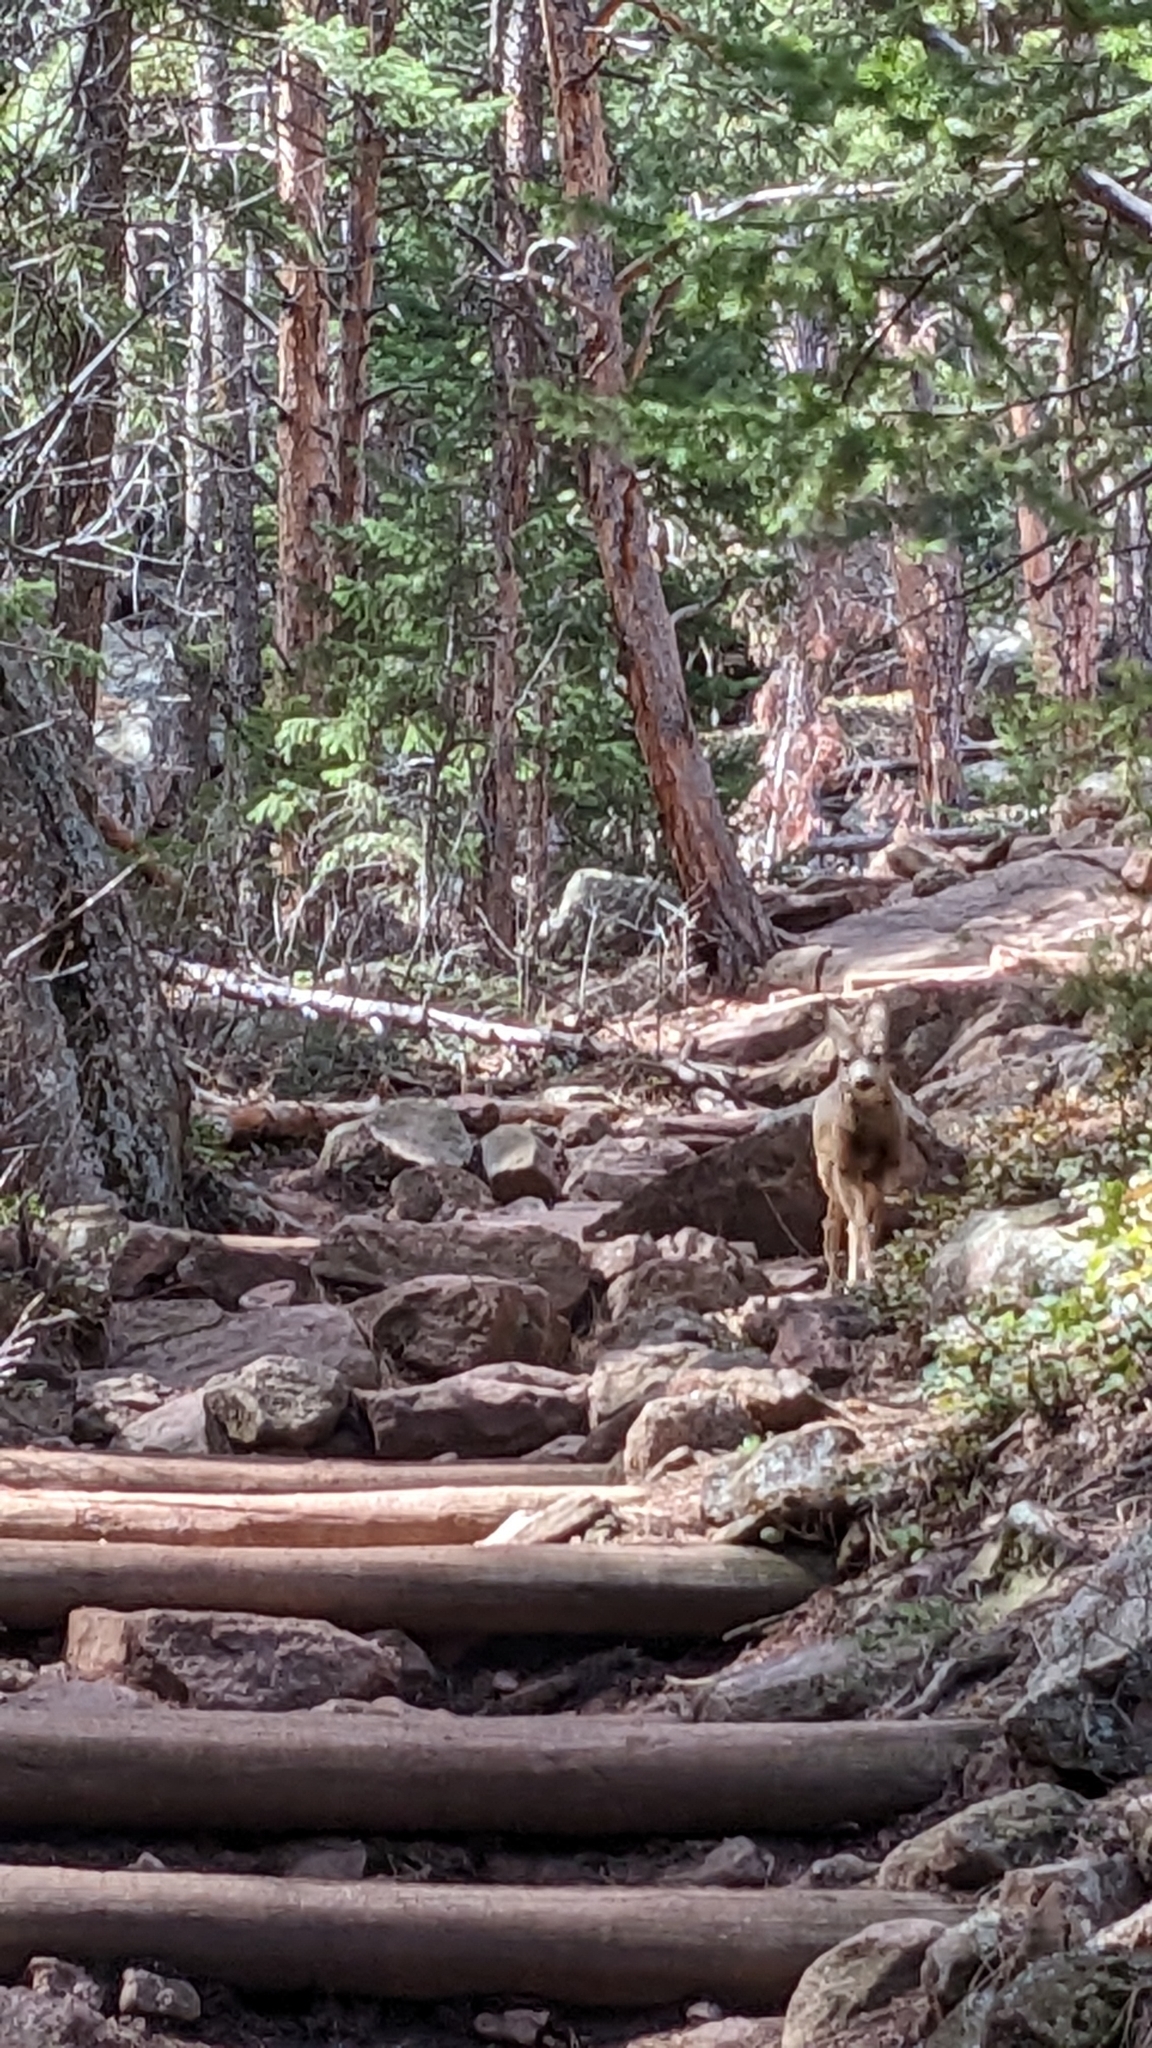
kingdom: Animalia
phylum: Chordata
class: Mammalia
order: Artiodactyla
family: Cervidae
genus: Odocoileus
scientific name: Odocoileus hemionus
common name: Mule deer
